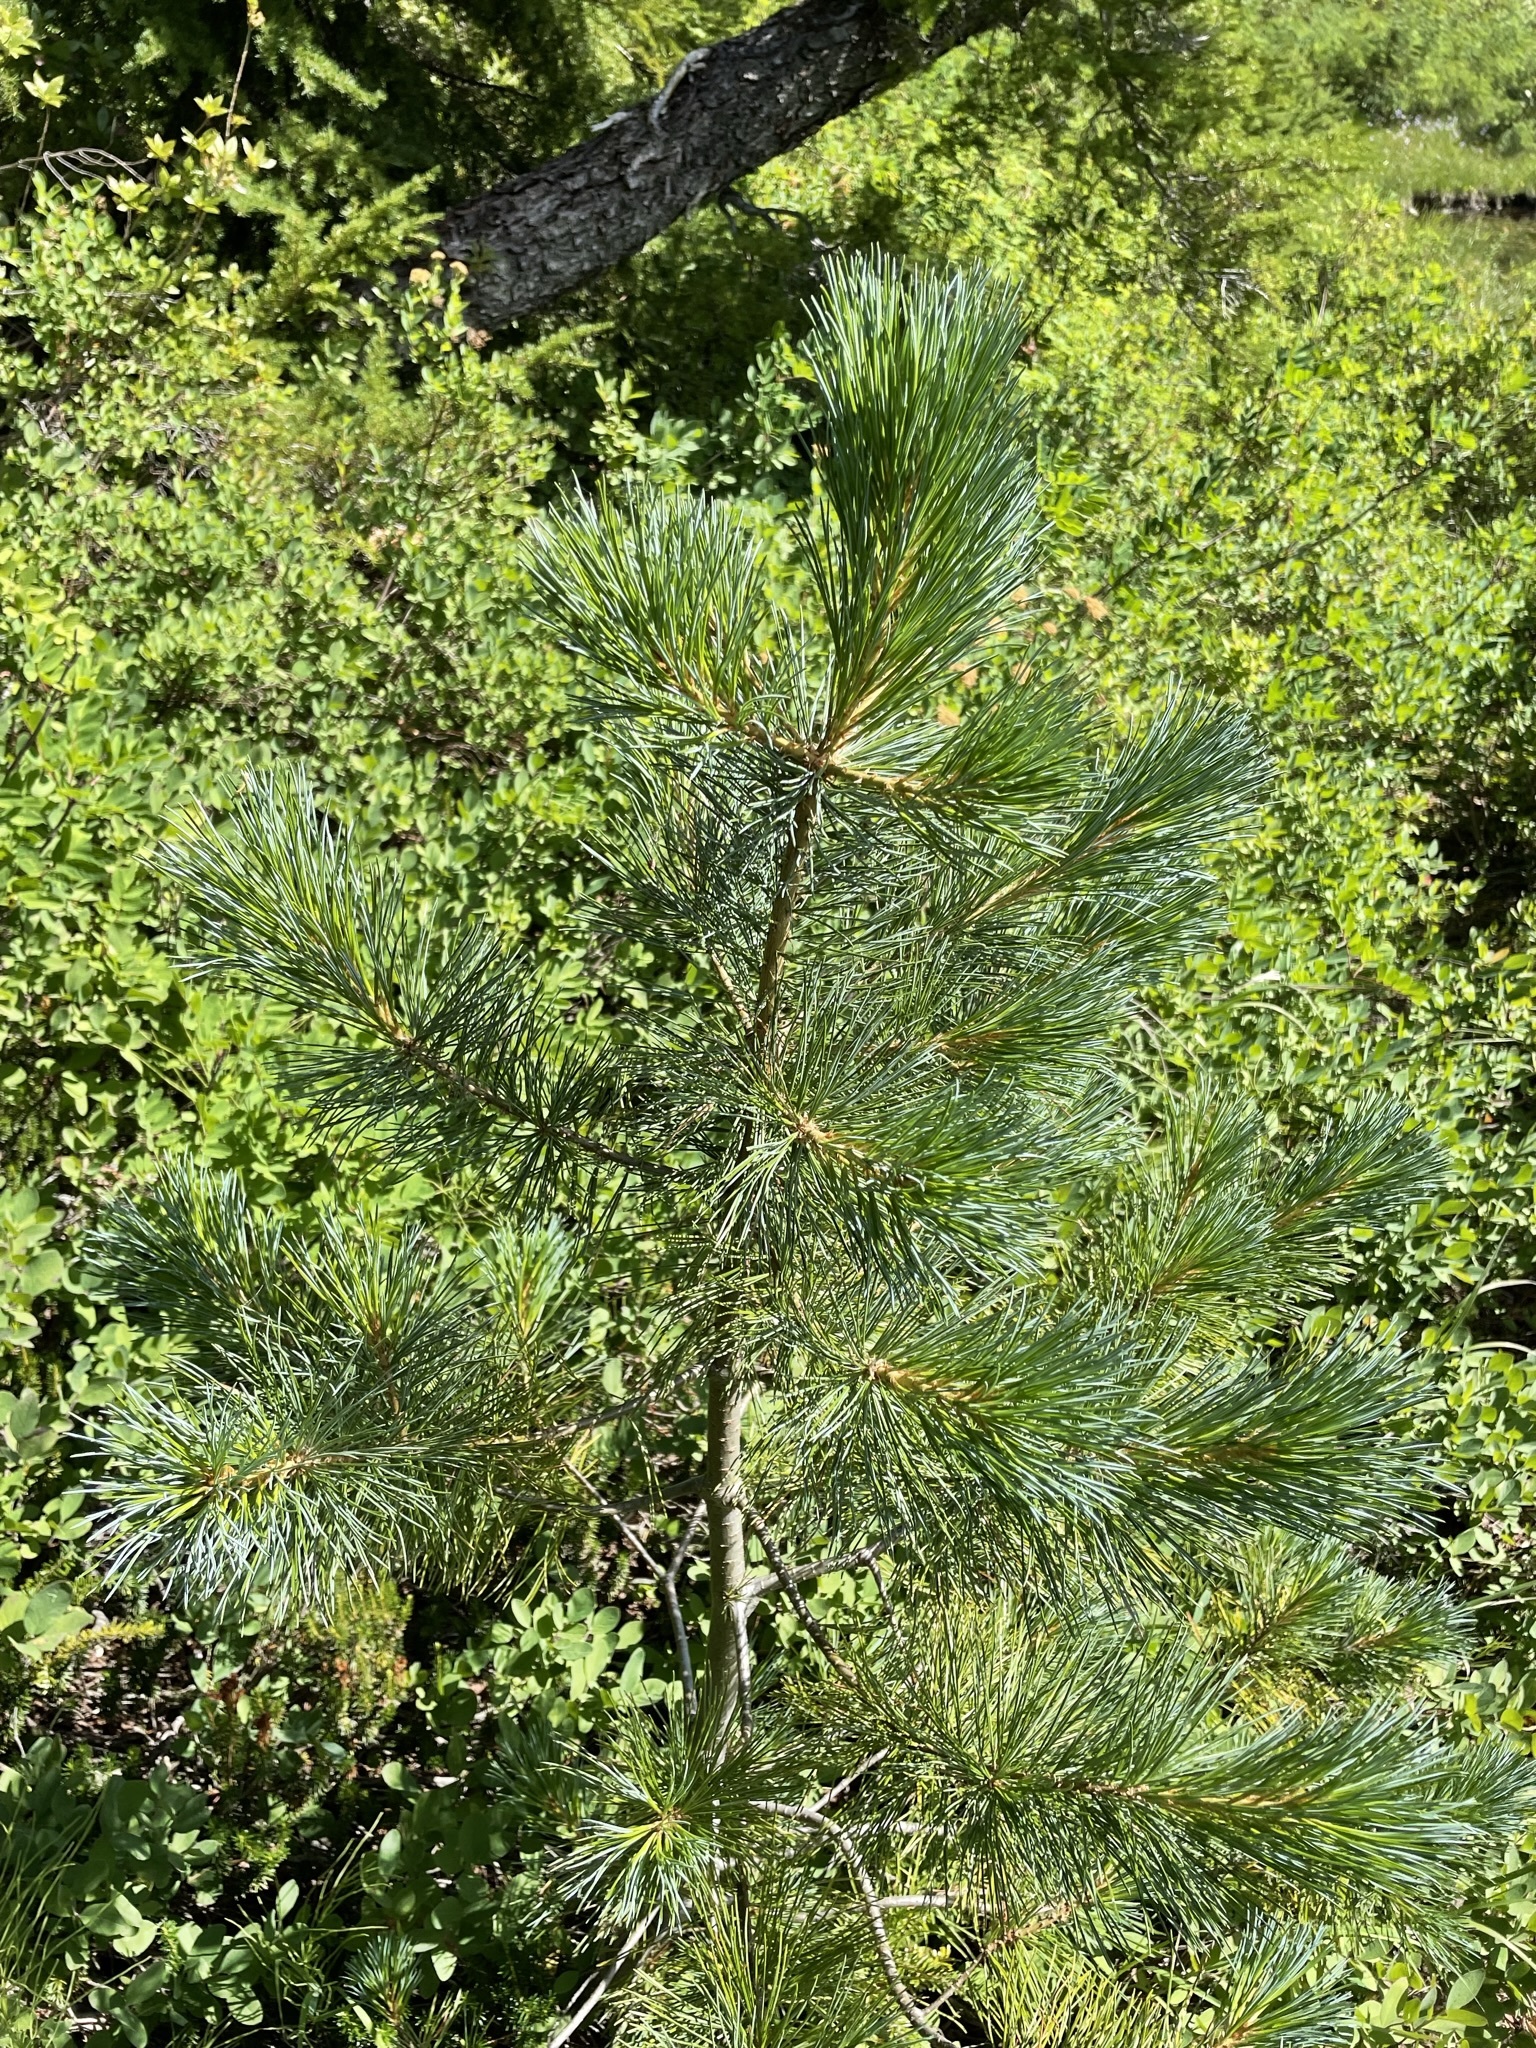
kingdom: Plantae
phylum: Tracheophyta
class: Pinopsida
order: Pinales
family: Pinaceae
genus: Pinus
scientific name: Pinus monticola
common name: Western white pine
